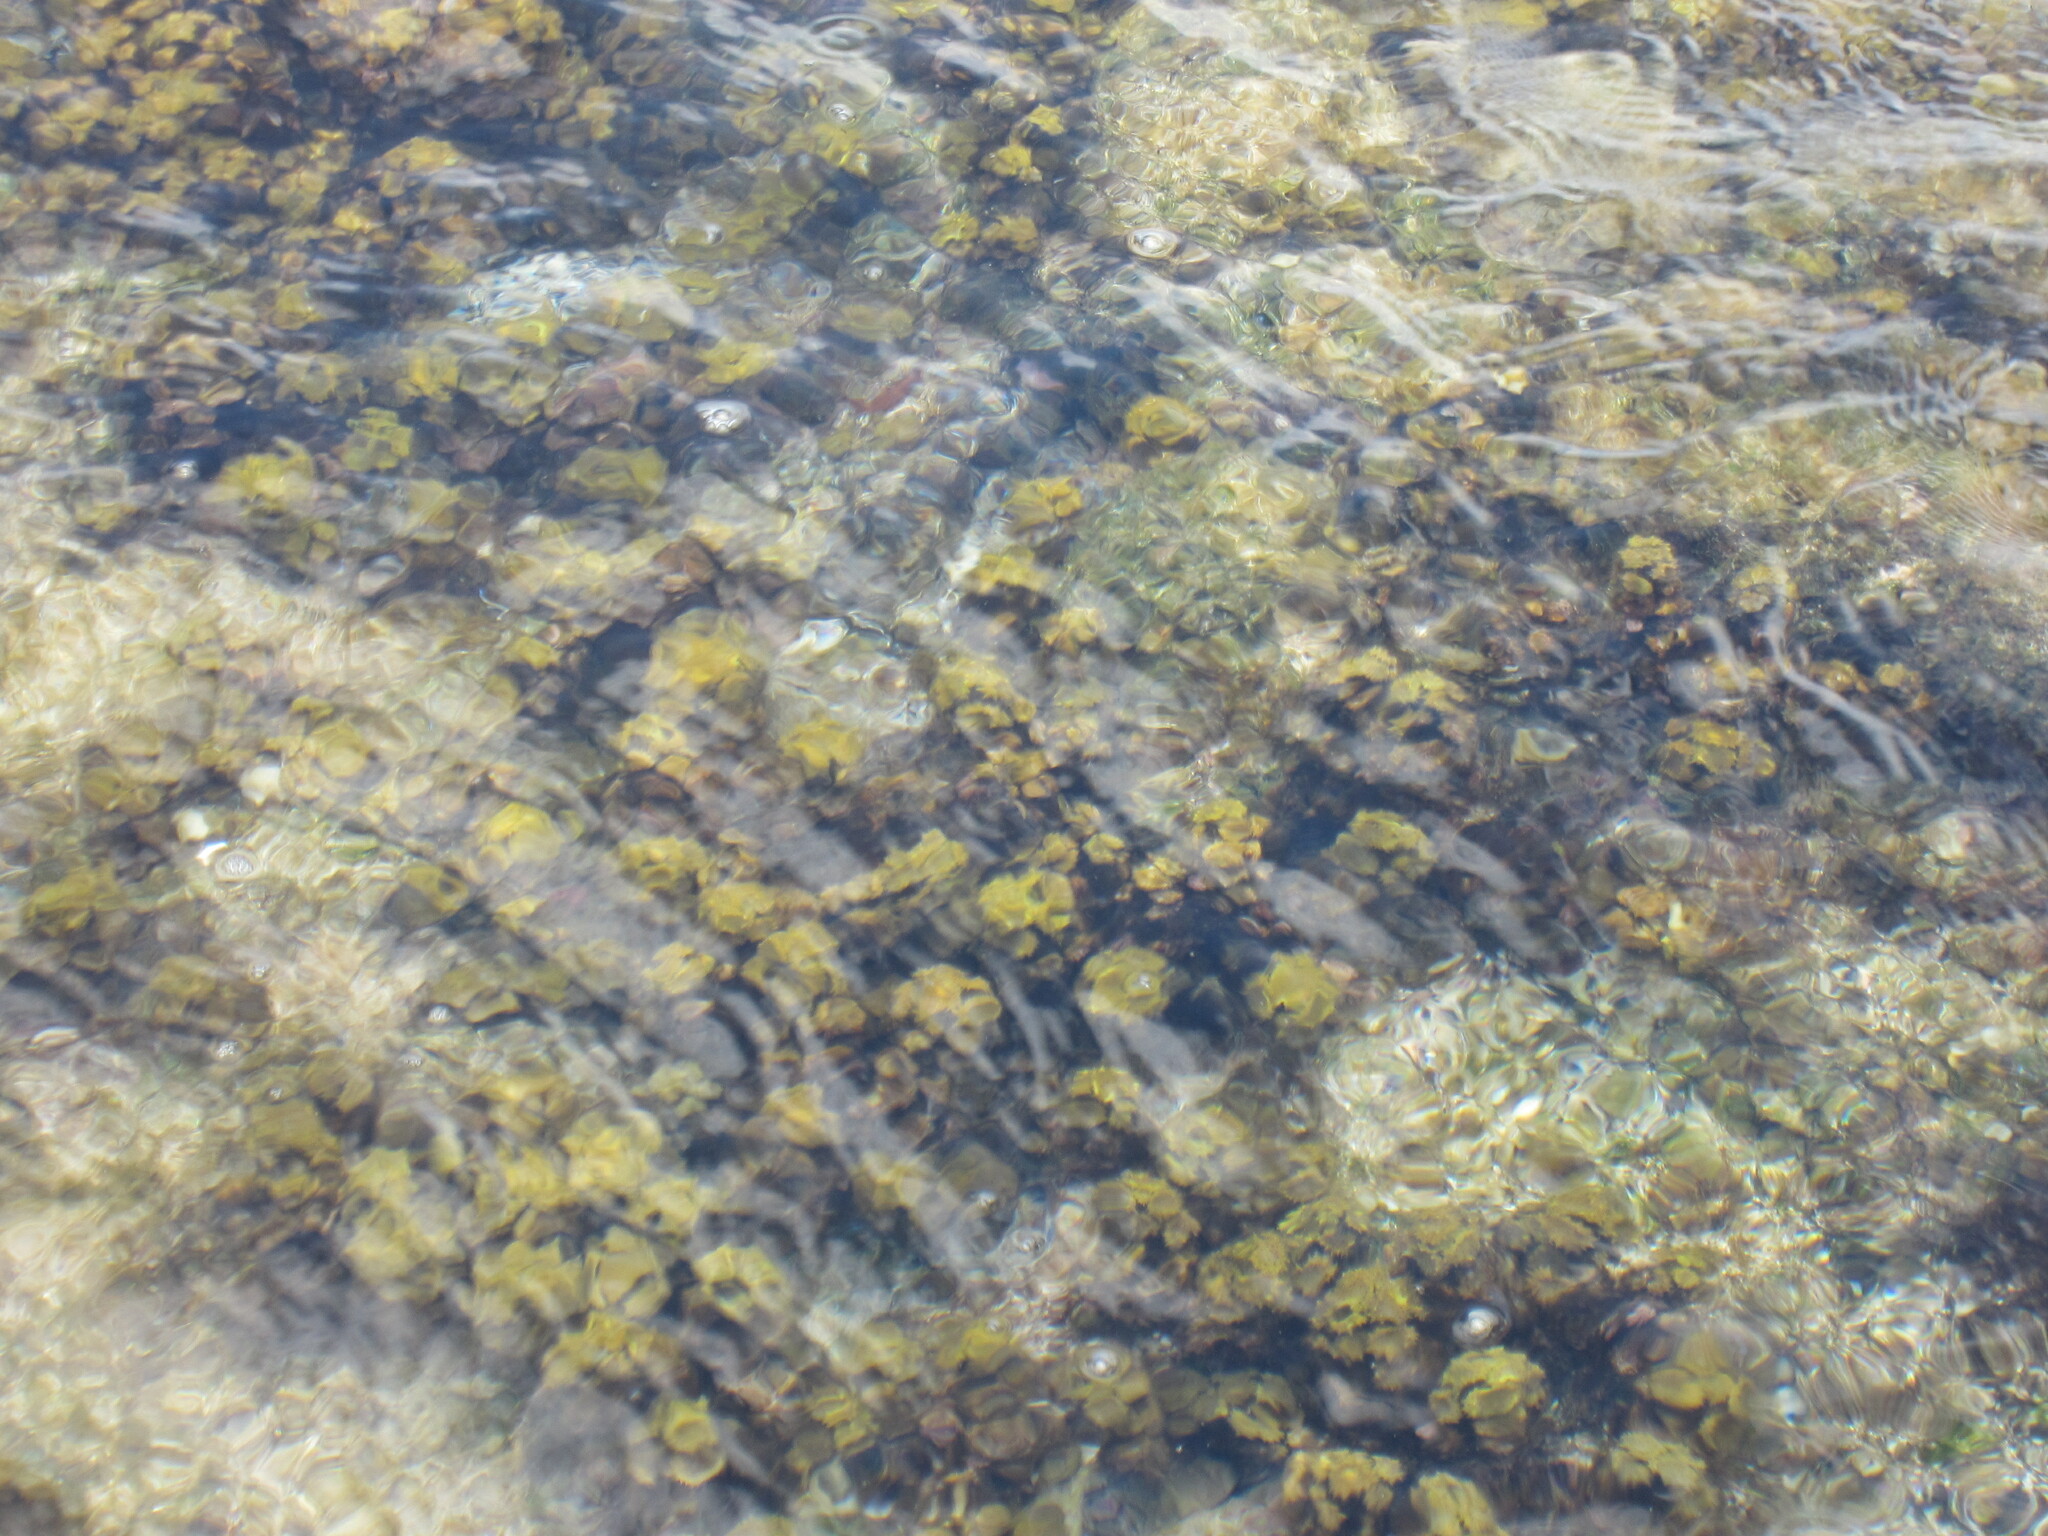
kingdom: Chromista
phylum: Ochrophyta
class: Phaeophyceae
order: Fucales
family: Sargassaceae
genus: Turbinaria
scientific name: Turbinaria ornata
